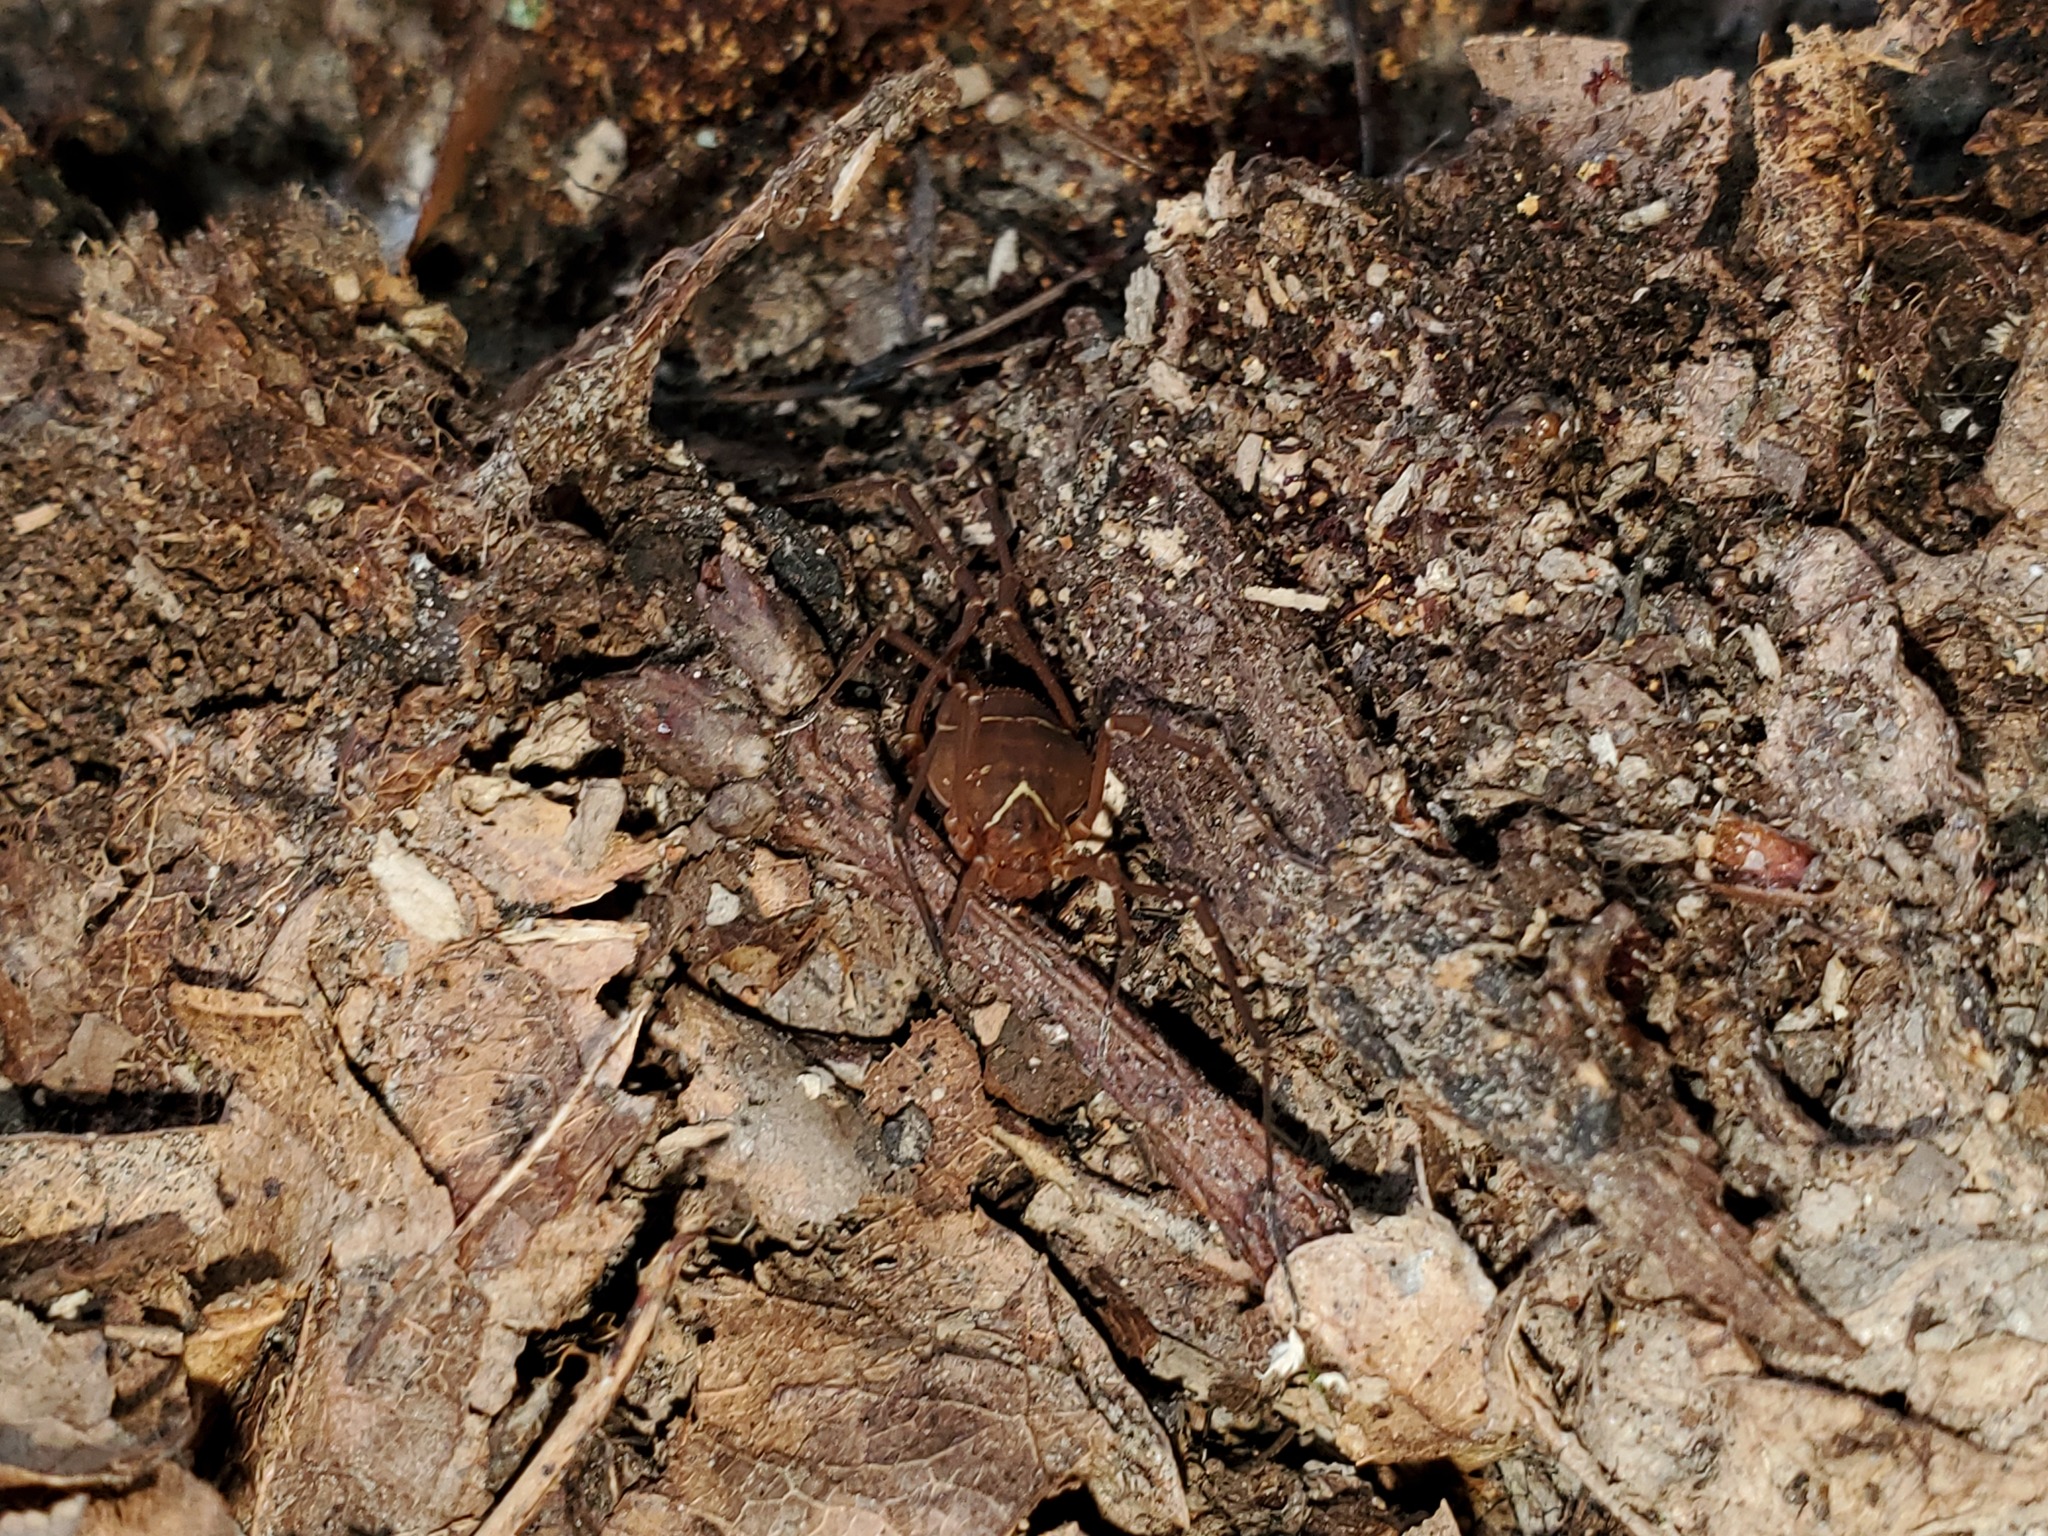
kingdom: Animalia
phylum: Arthropoda
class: Arachnida
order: Opiliones
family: Cosmetidae
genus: Libitioides
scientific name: Libitioides sayi
